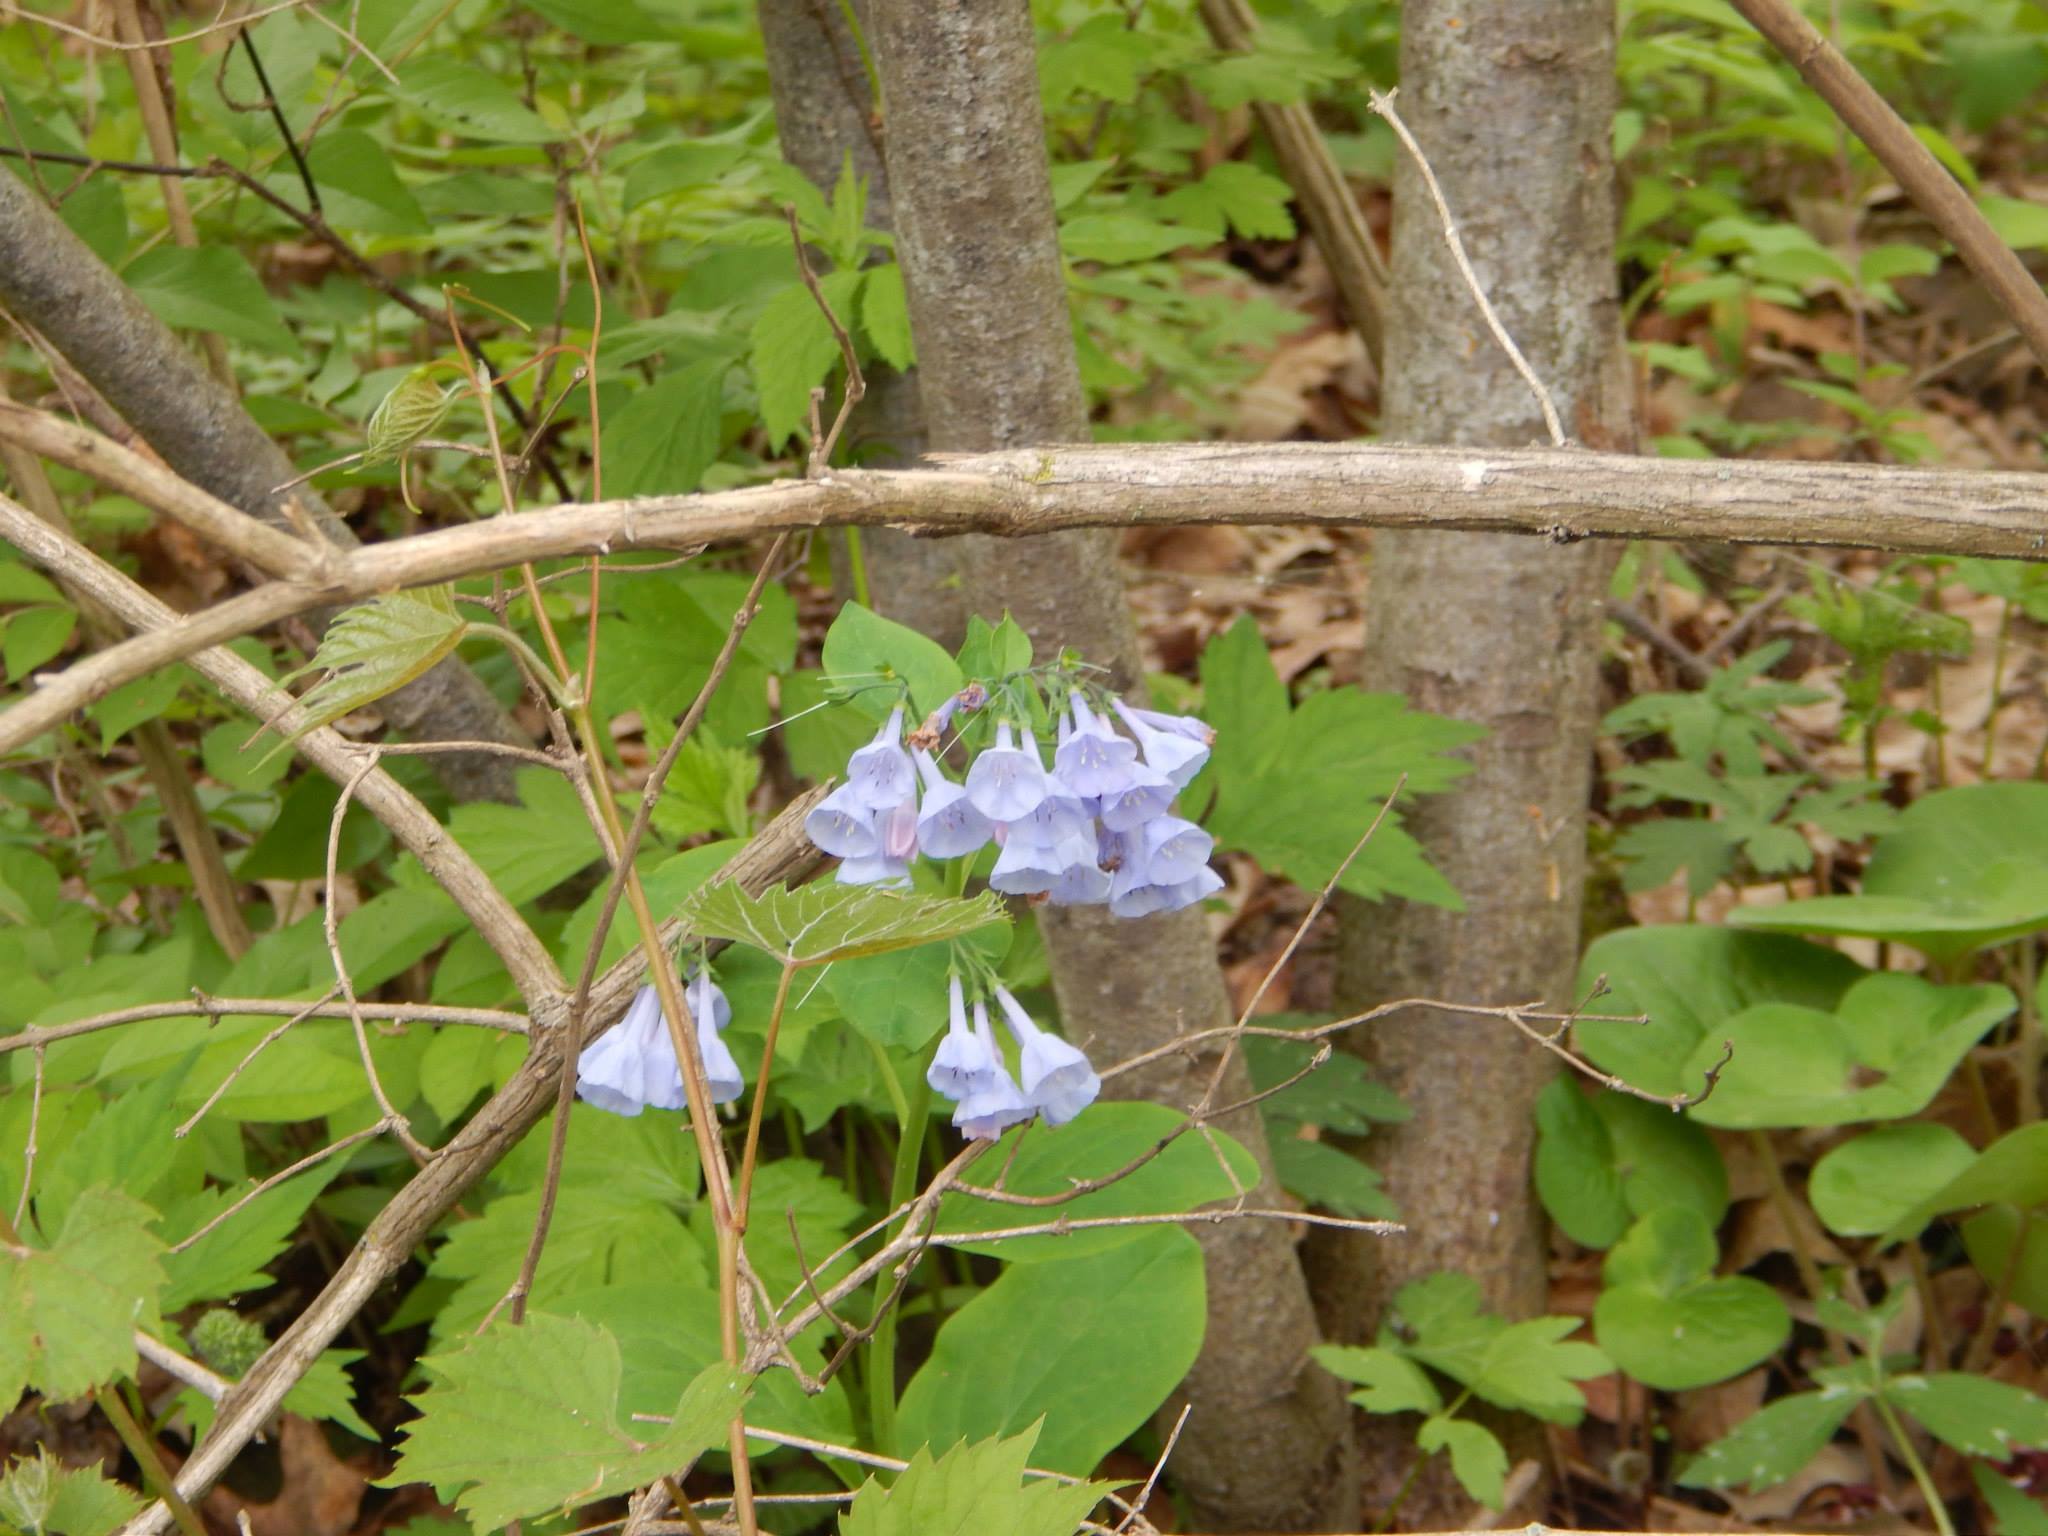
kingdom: Plantae
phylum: Tracheophyta
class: Magnoliopsida
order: Boraginales
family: Boraginaceae
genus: Mertensia
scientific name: Mertensia virginica
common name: Virginia bluebells
